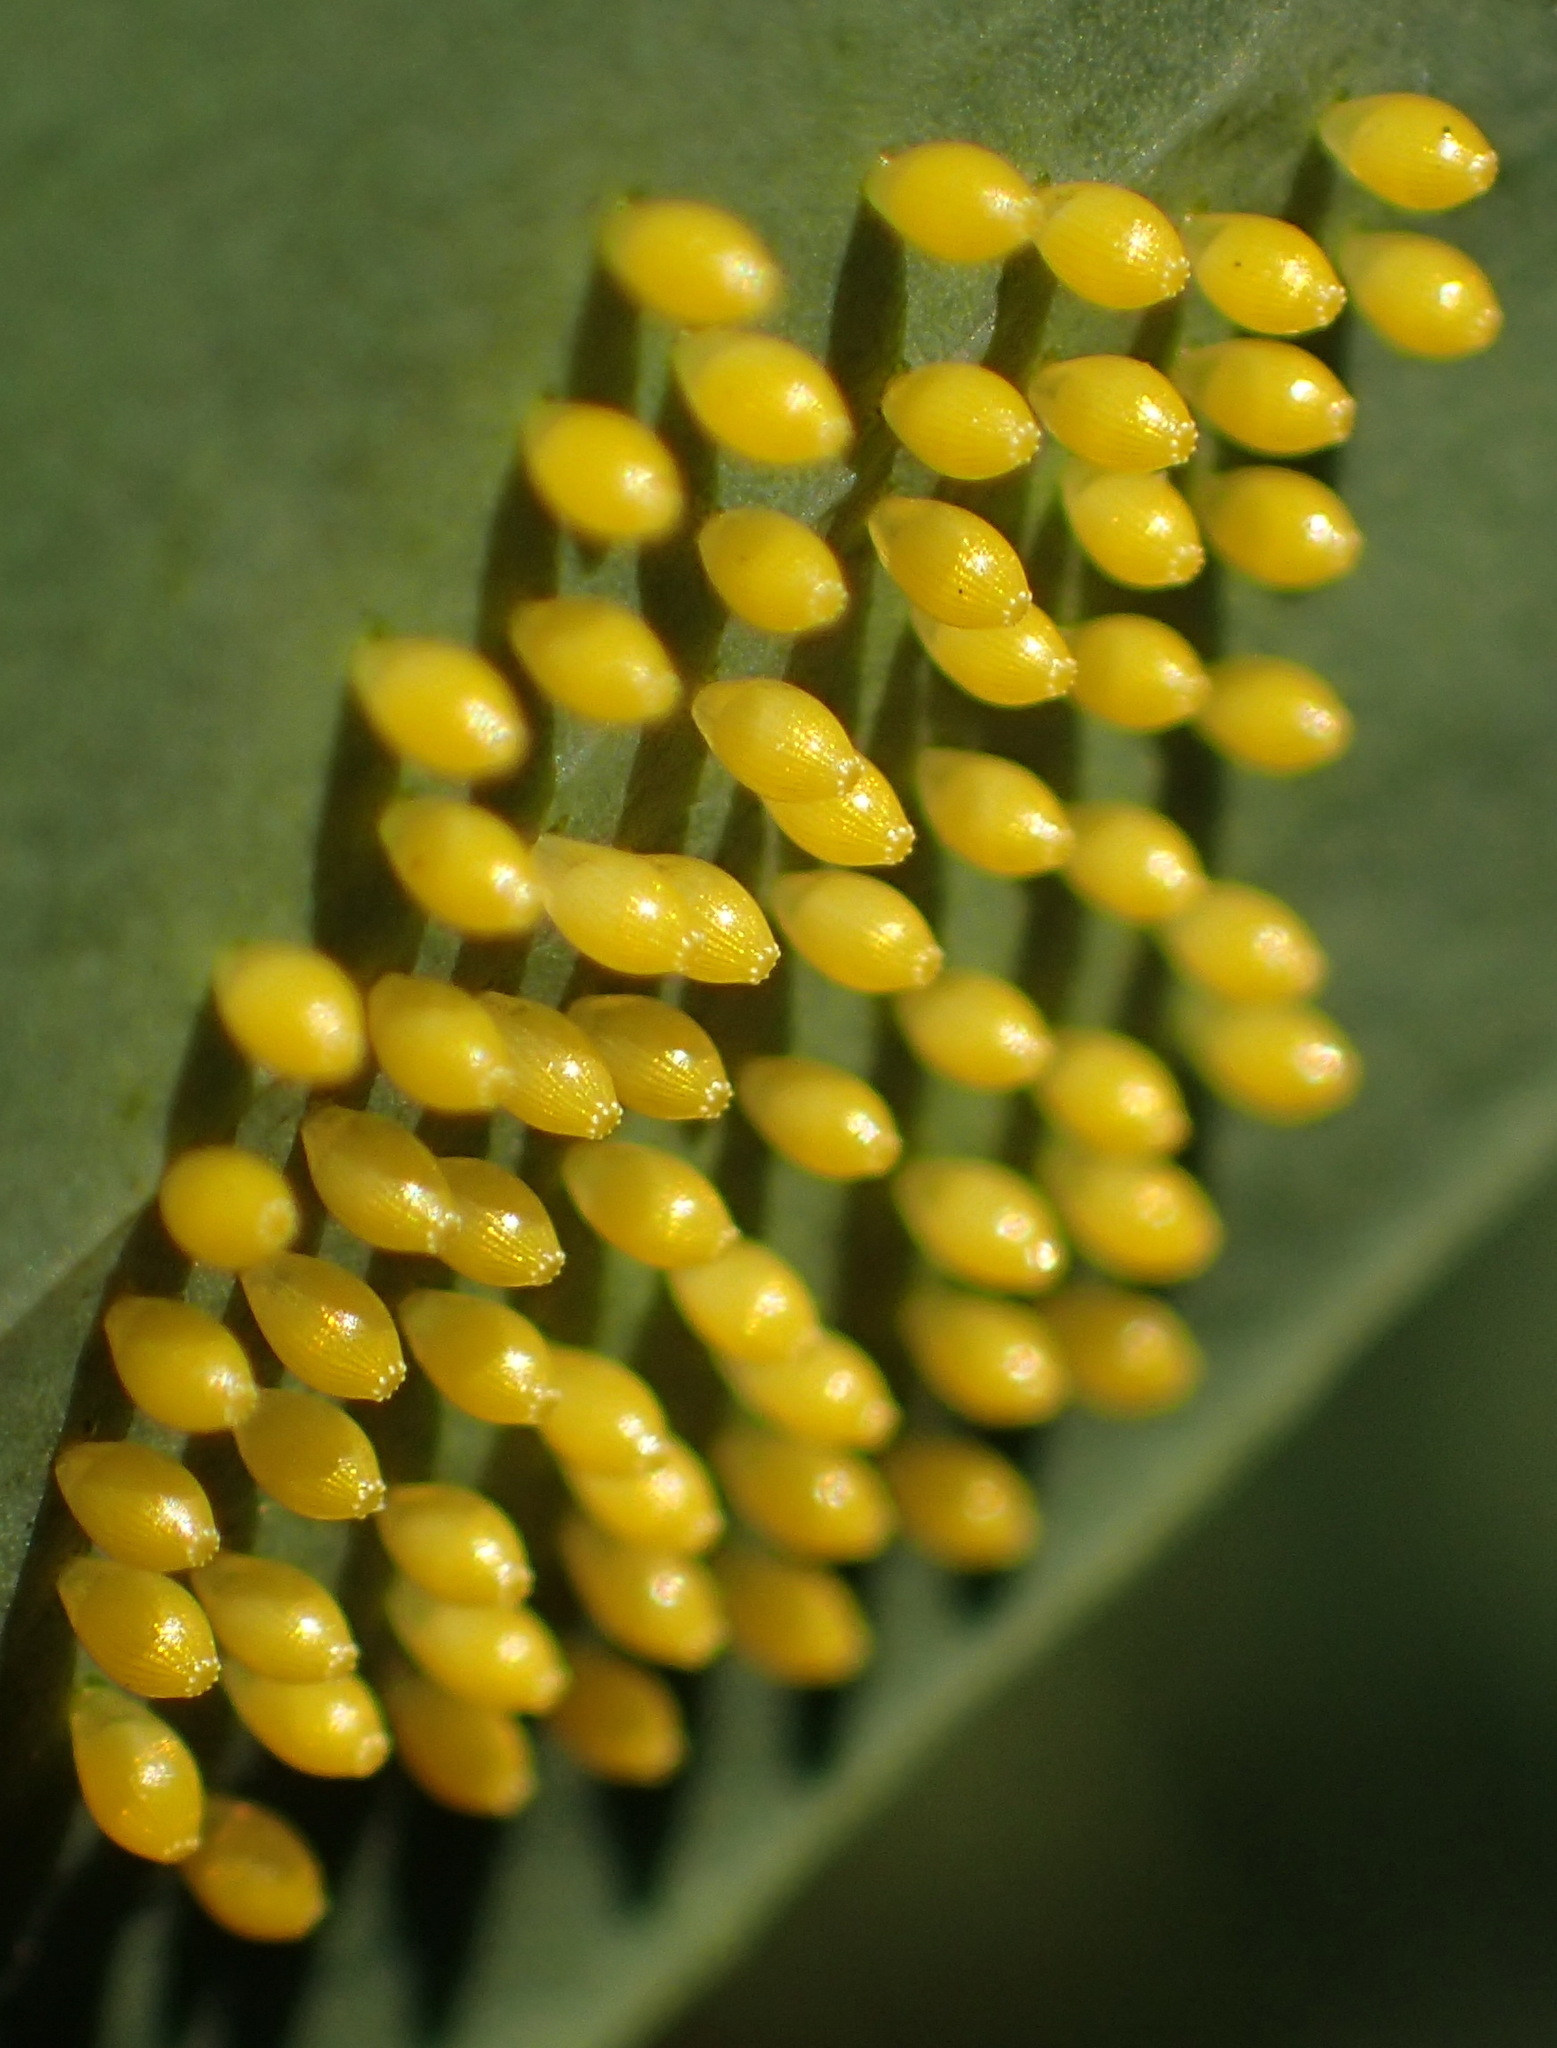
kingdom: Animalia
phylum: Arthropoda
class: Insecta
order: Lepidoptera
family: Pieridae
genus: Mylothris
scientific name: Mylothris agathina
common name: Eastern dotted border
